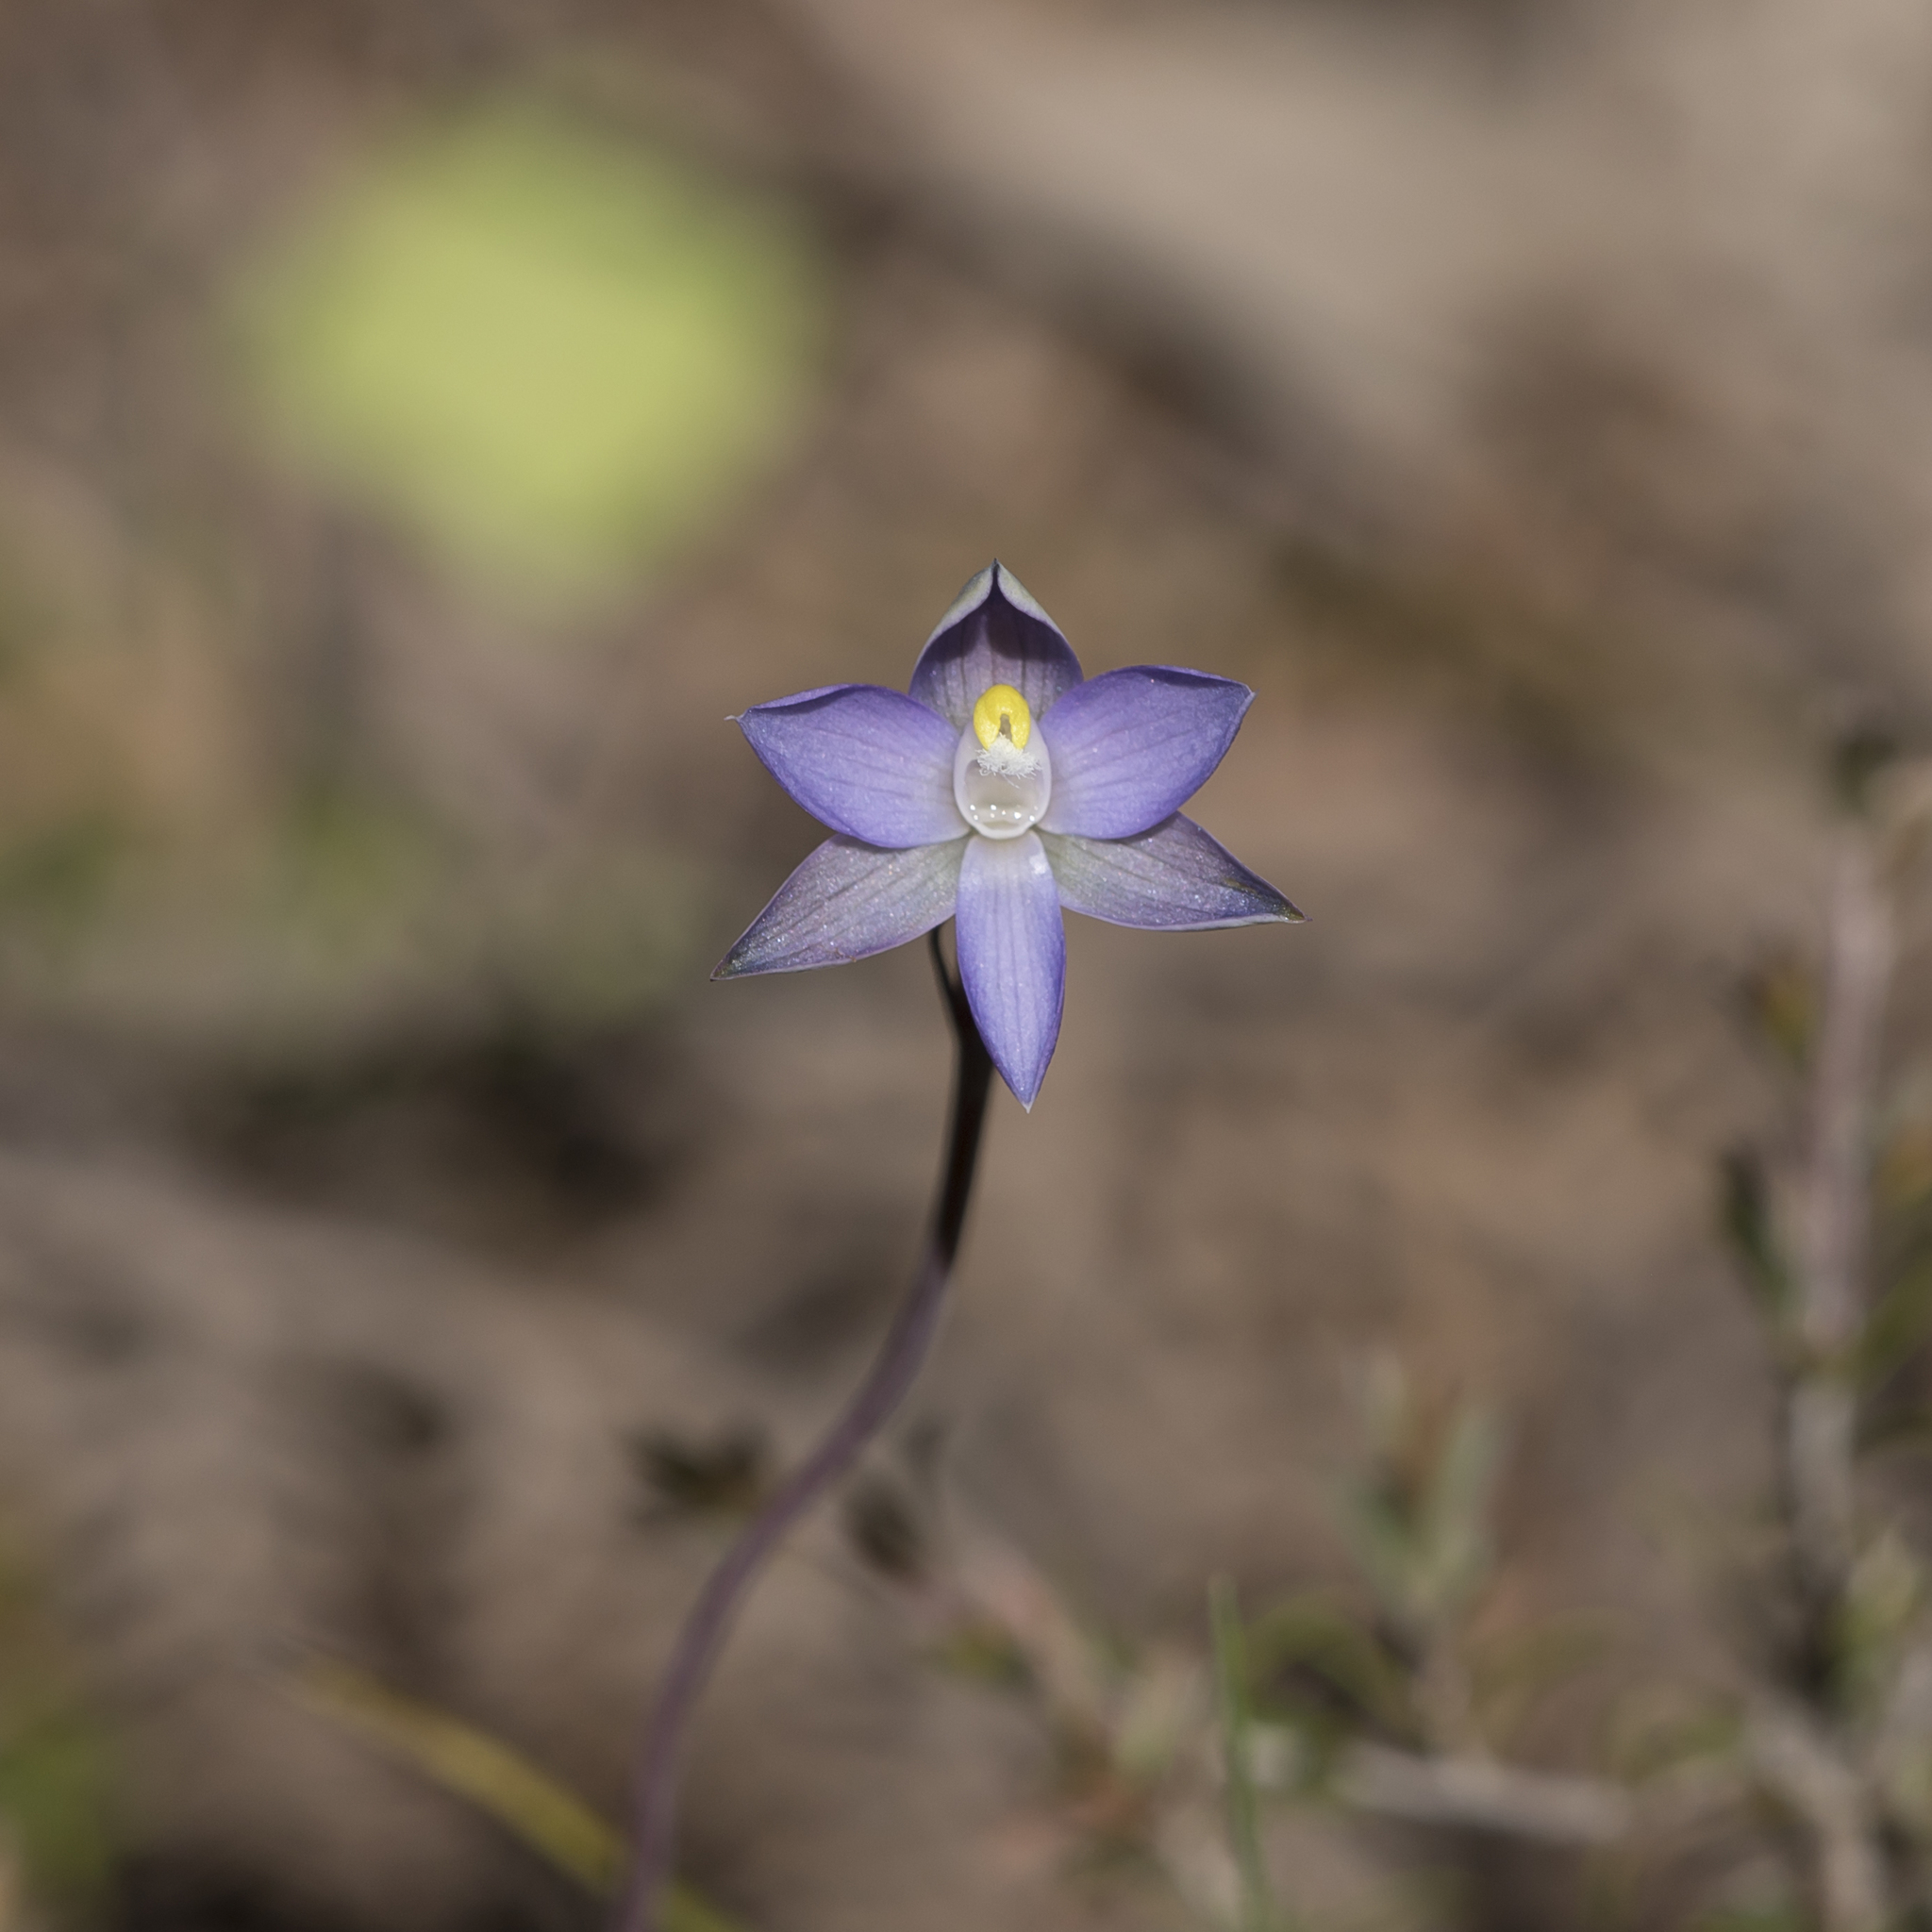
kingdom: Plantae
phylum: Tracheophyta
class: Liliopsida
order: Asparagales
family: Orchidaceae
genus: Thelymitra
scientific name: Thelymitra pauciflora
